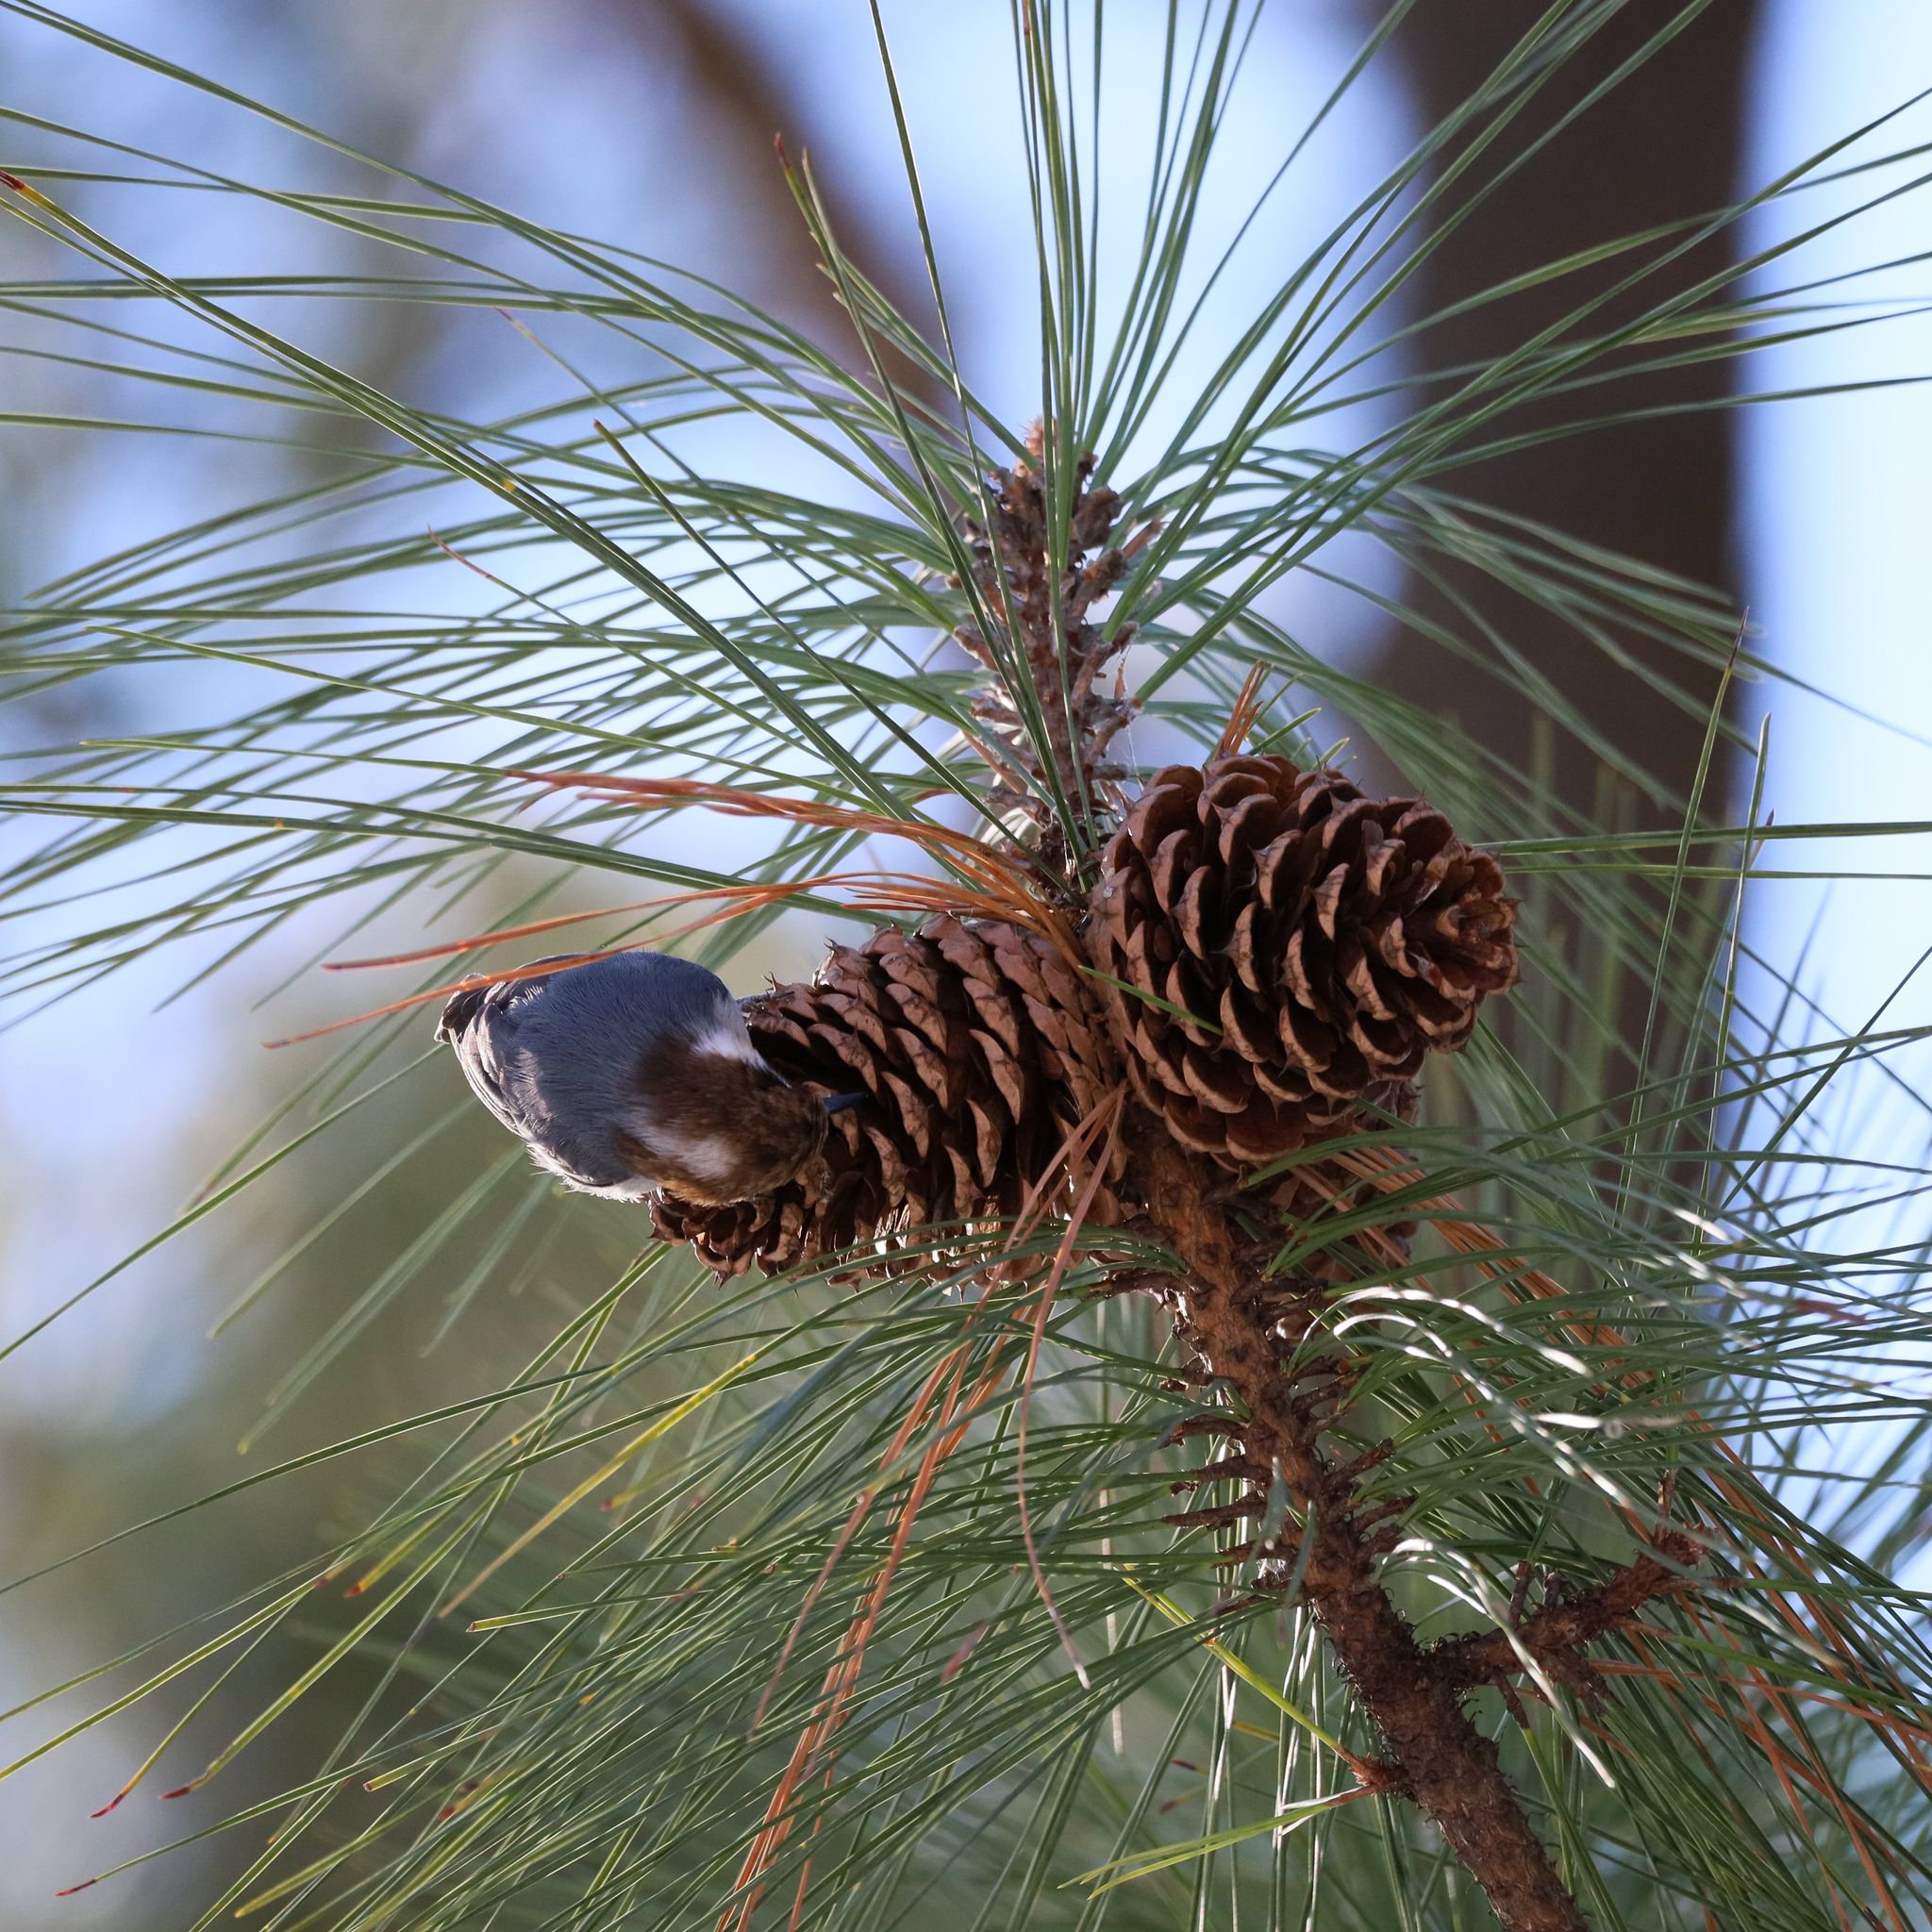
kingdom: Animalia
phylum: Chordata
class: Aves
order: Passeriformes
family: Sittidae
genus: Sitta
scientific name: Sitta pusilla
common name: Brown-headed nuthatch
